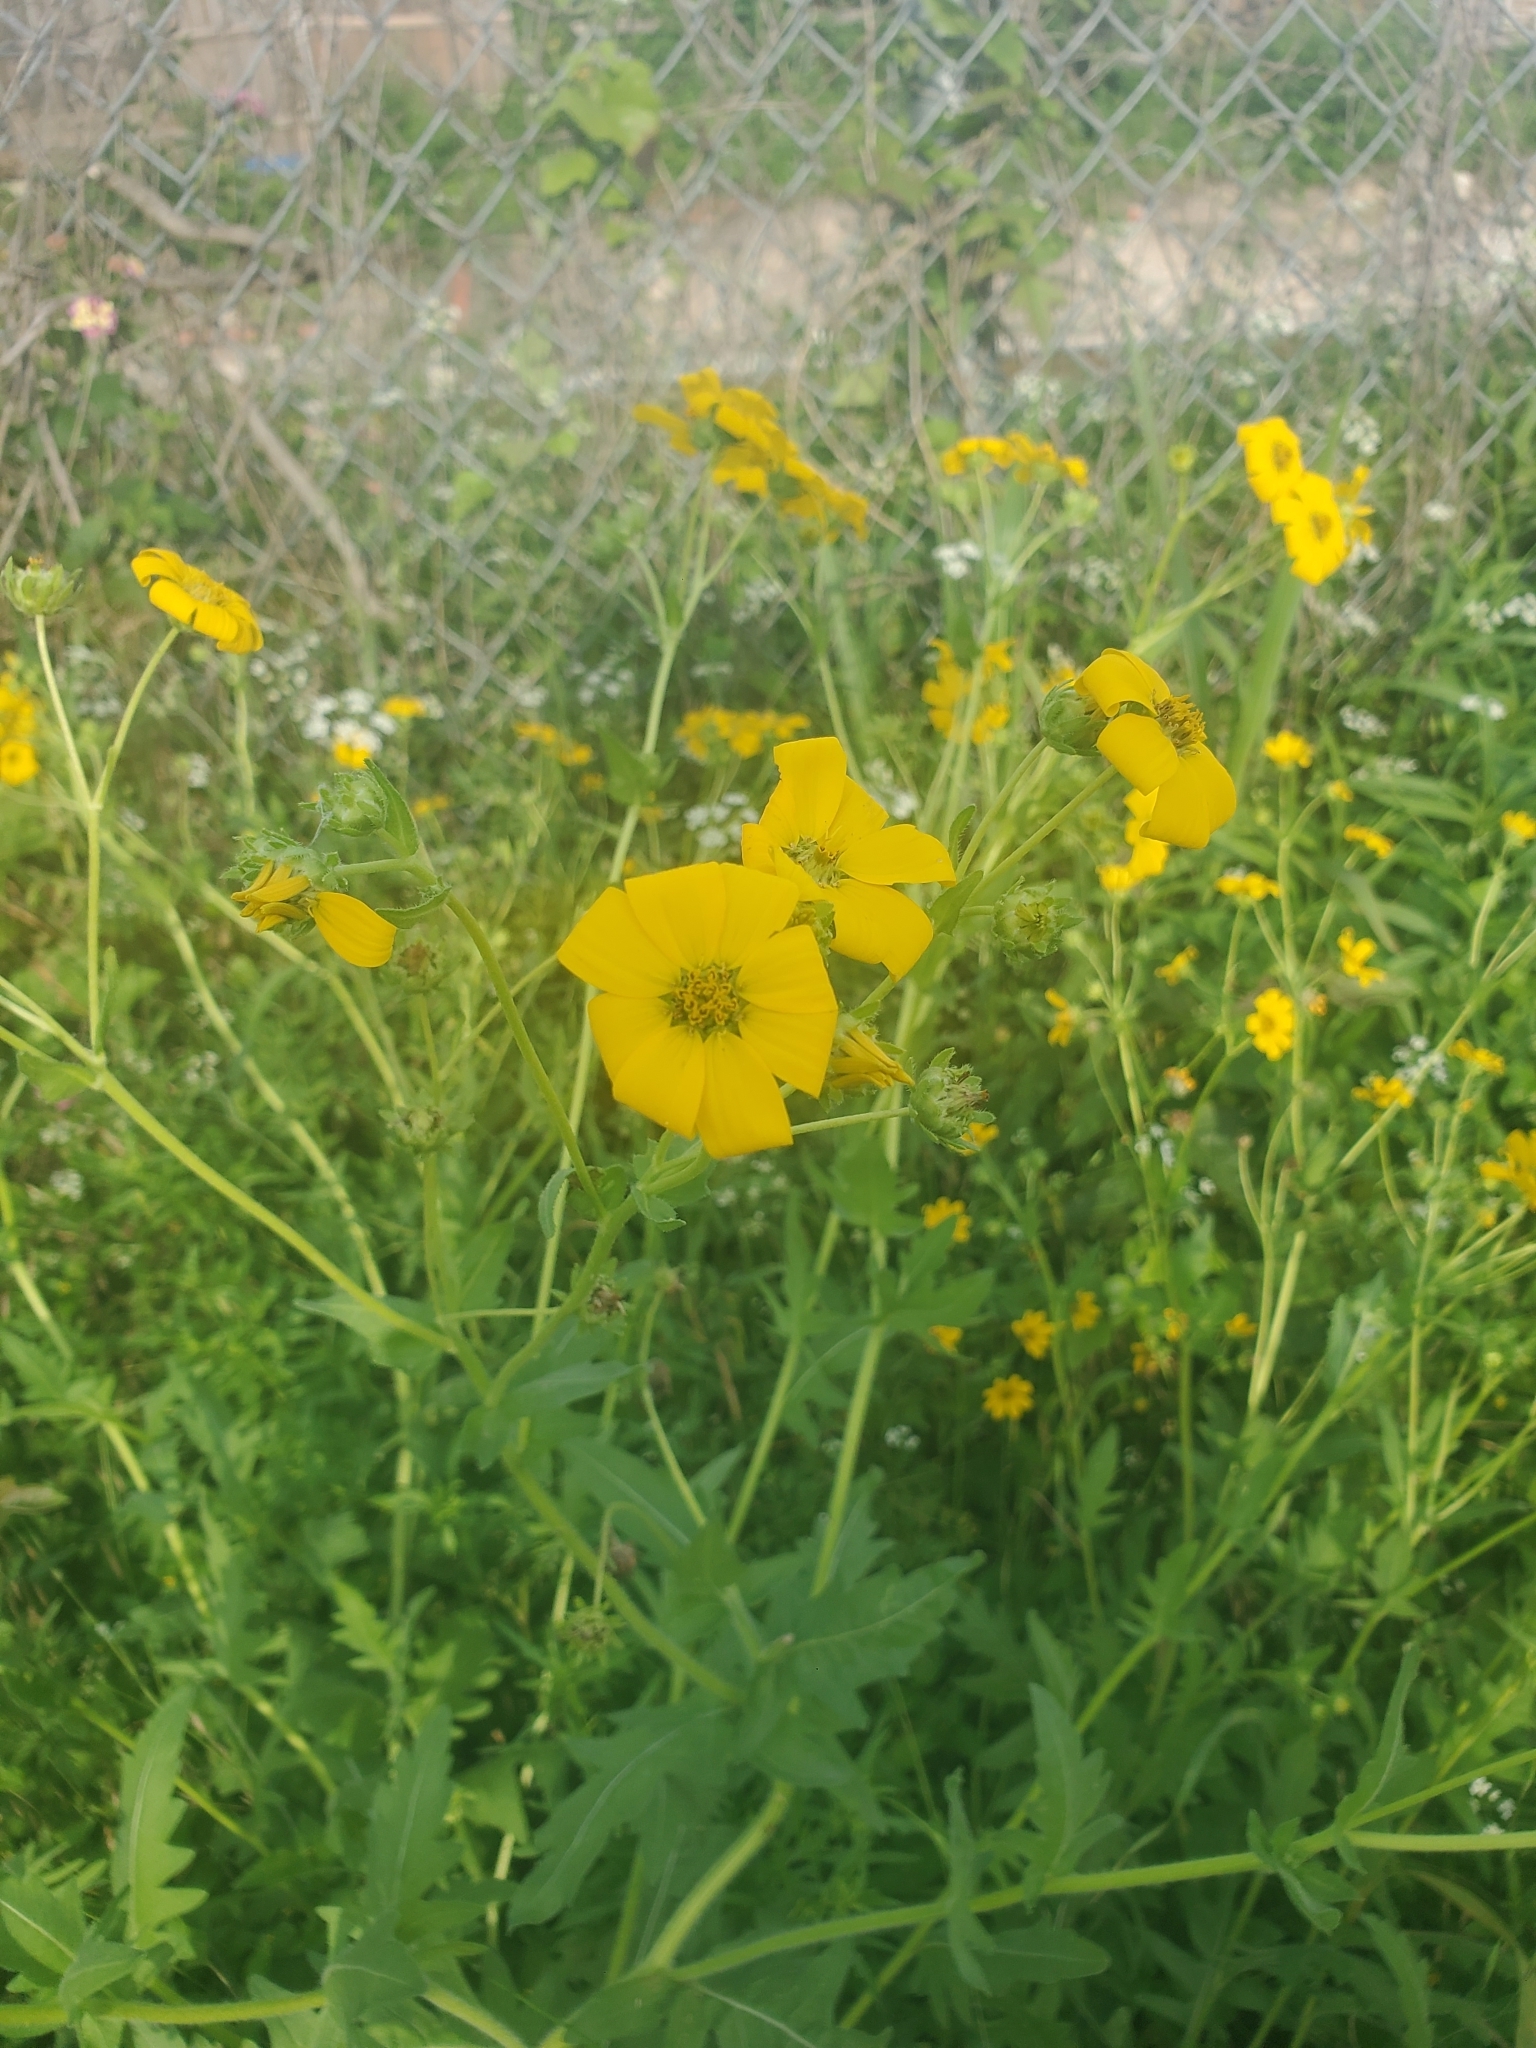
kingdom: Plantae
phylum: Tracheophyta
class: Magnoliopsida
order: Asterales
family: Asteraceae
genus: Engelmannia
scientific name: Engelmannia peristenia
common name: Engelmann's daisy
